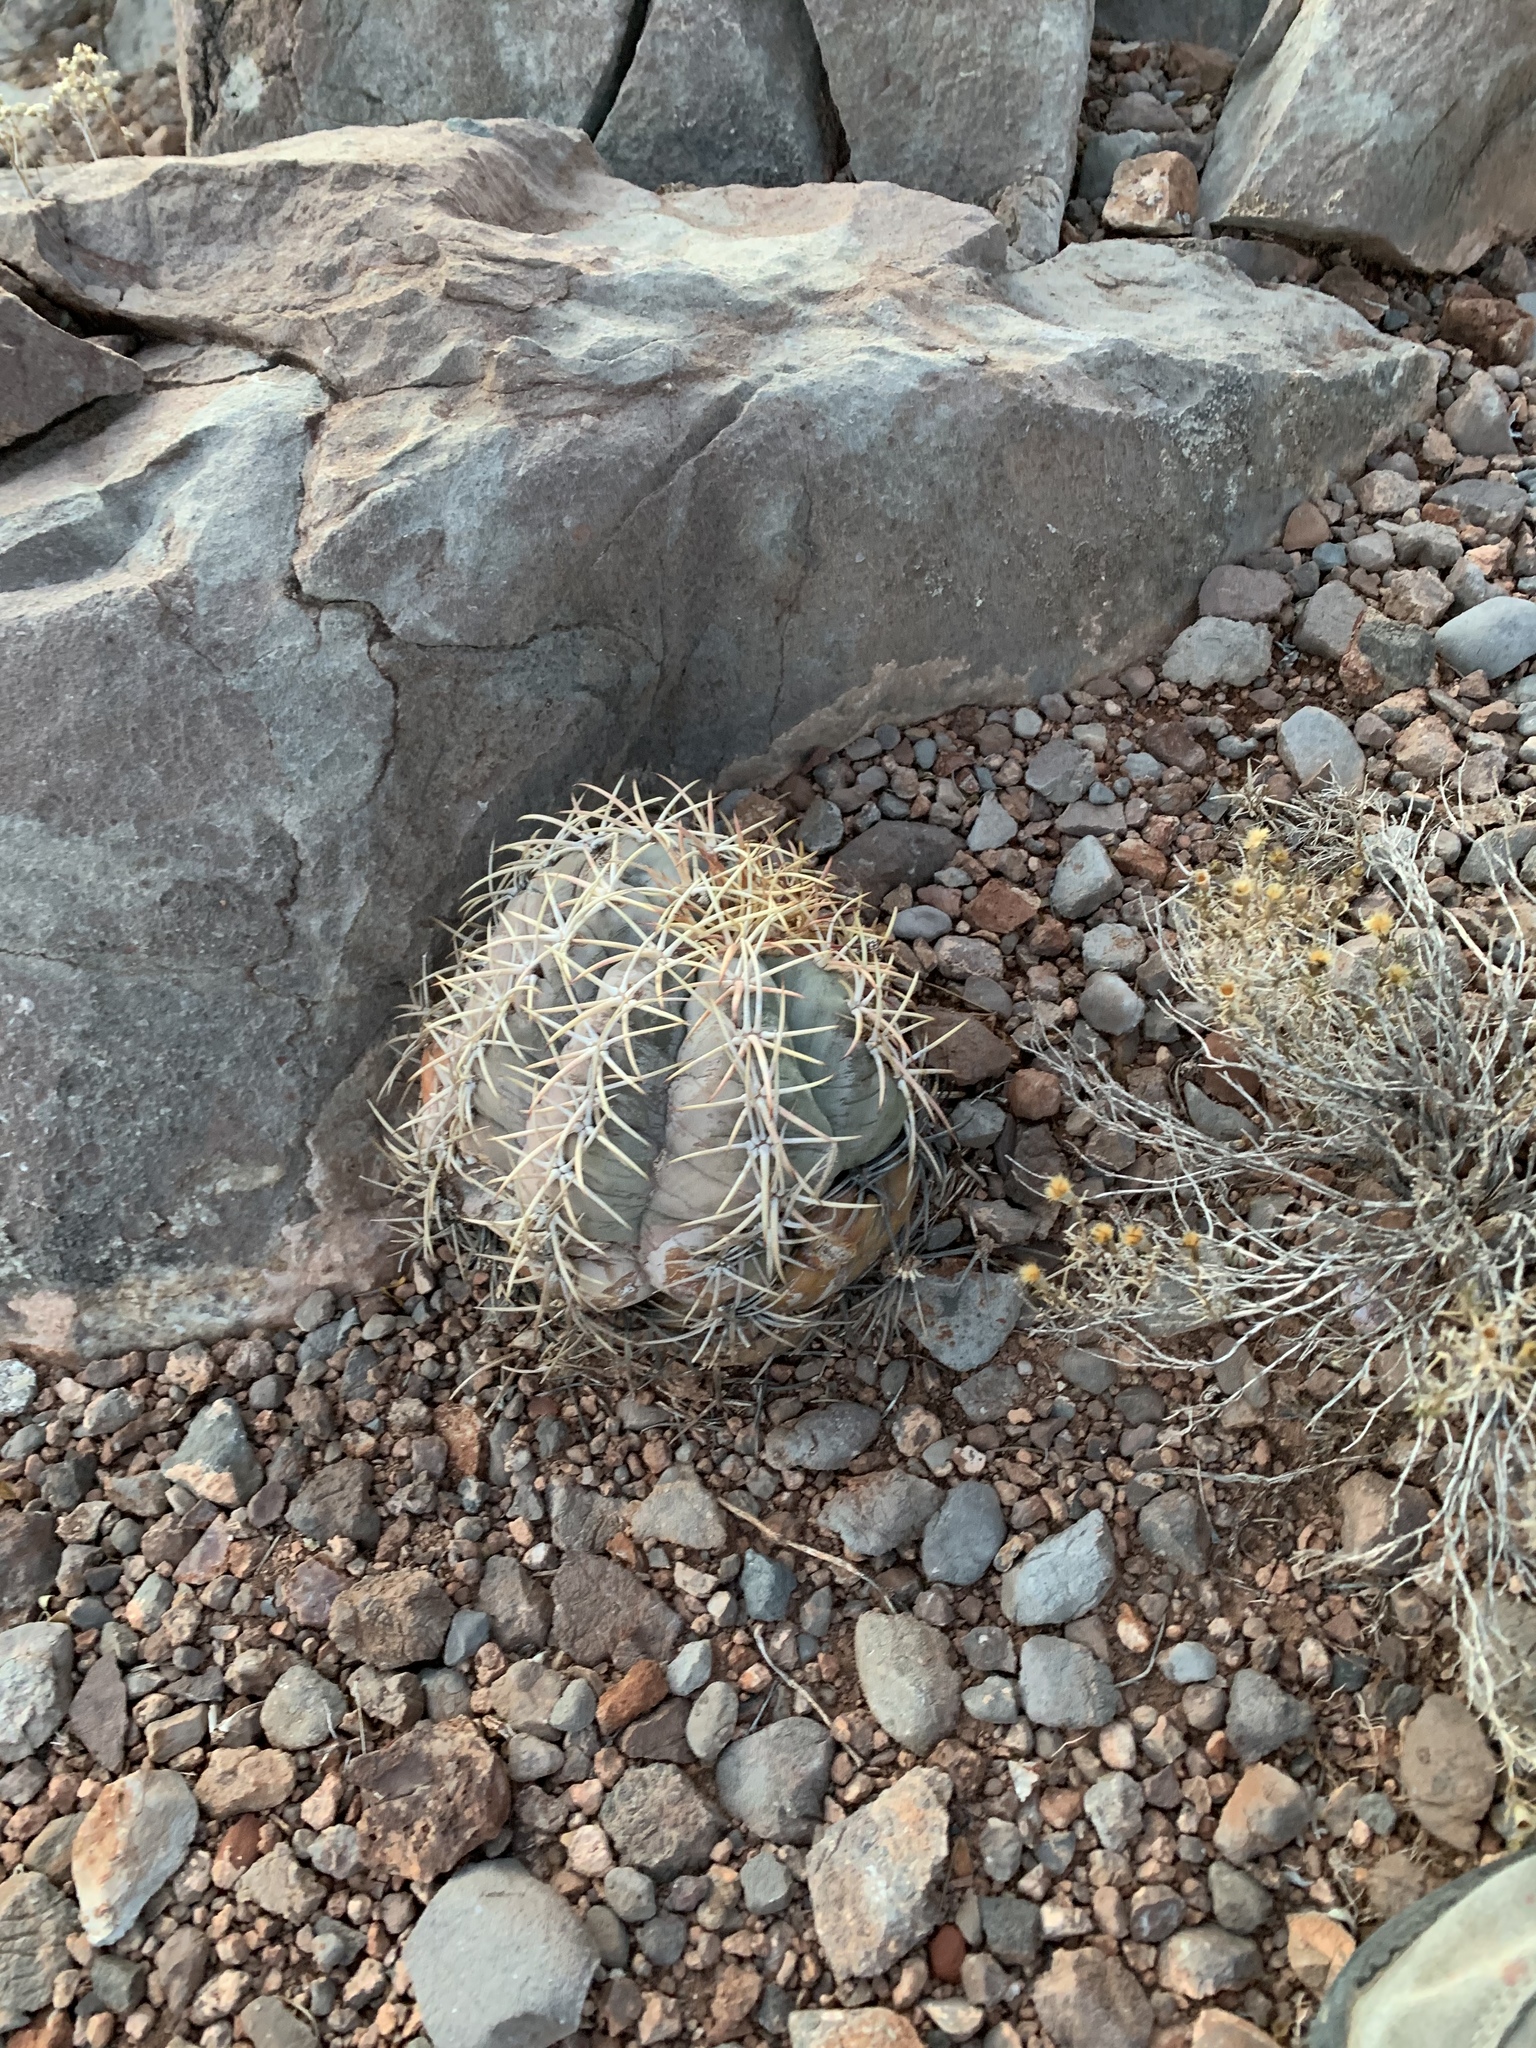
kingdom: Plantae
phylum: Tracheophyta
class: Magnoliopsida
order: Caryophyllales
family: Cactaceae
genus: Echinocactus
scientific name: Echinocactus horizonthalonius
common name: Devilshead
